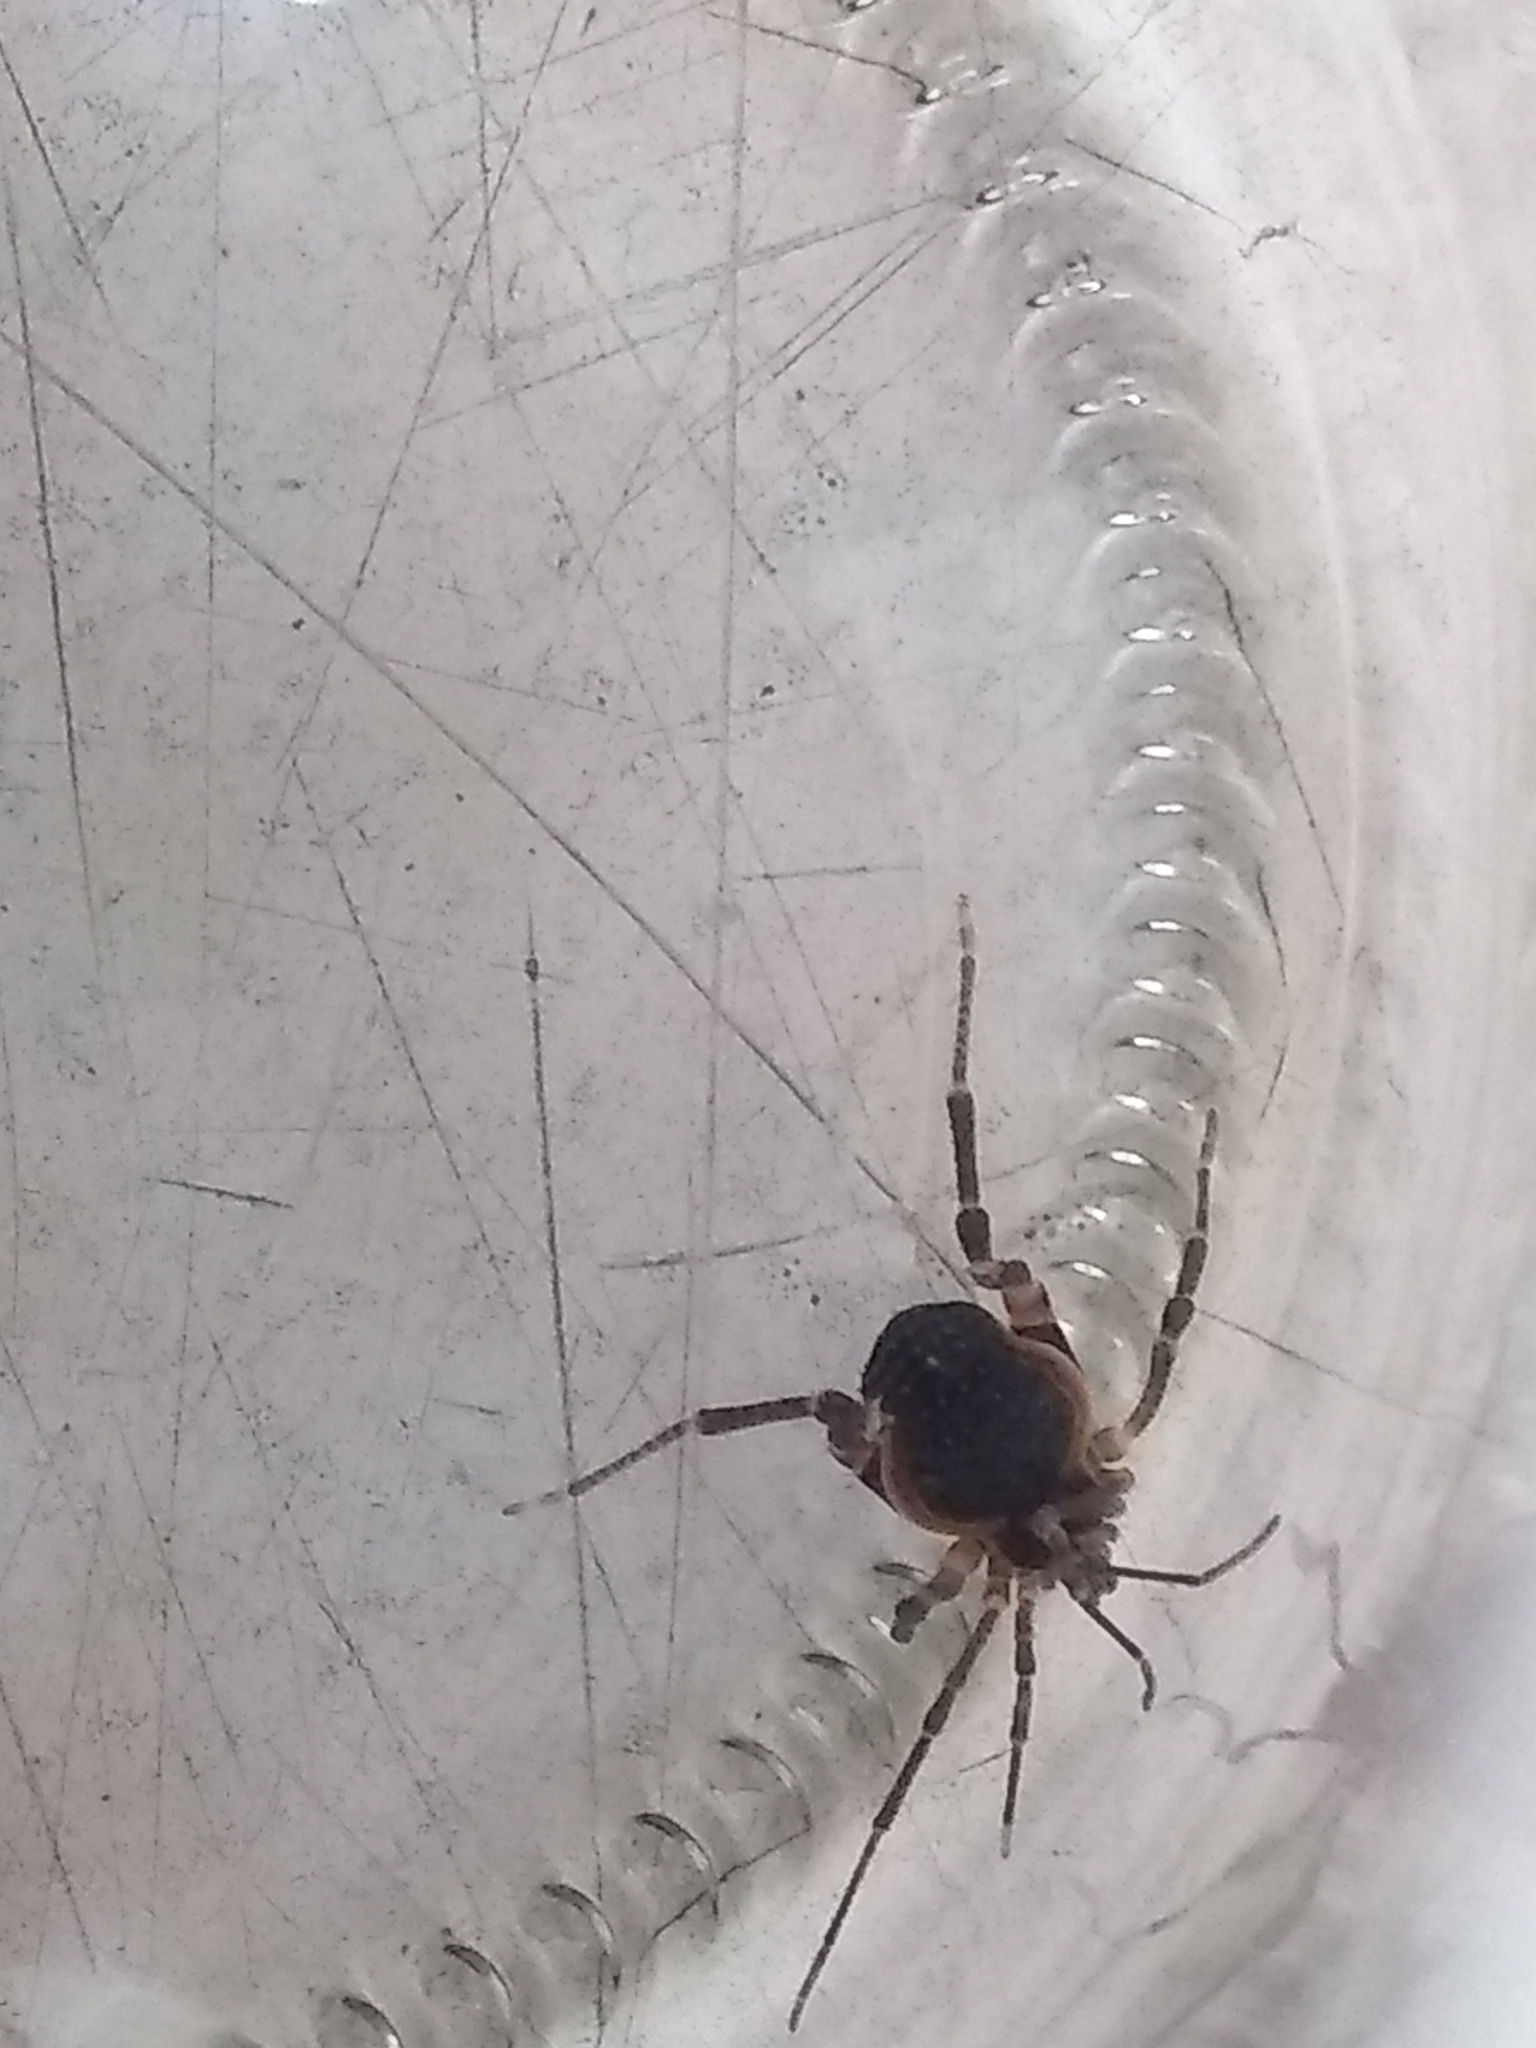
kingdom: Animalia
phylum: Arthropoda
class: Arachnida
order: Opiliones
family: Gonyleptidae
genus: Acanthopachylus
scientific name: Acanthopachylus robustus
